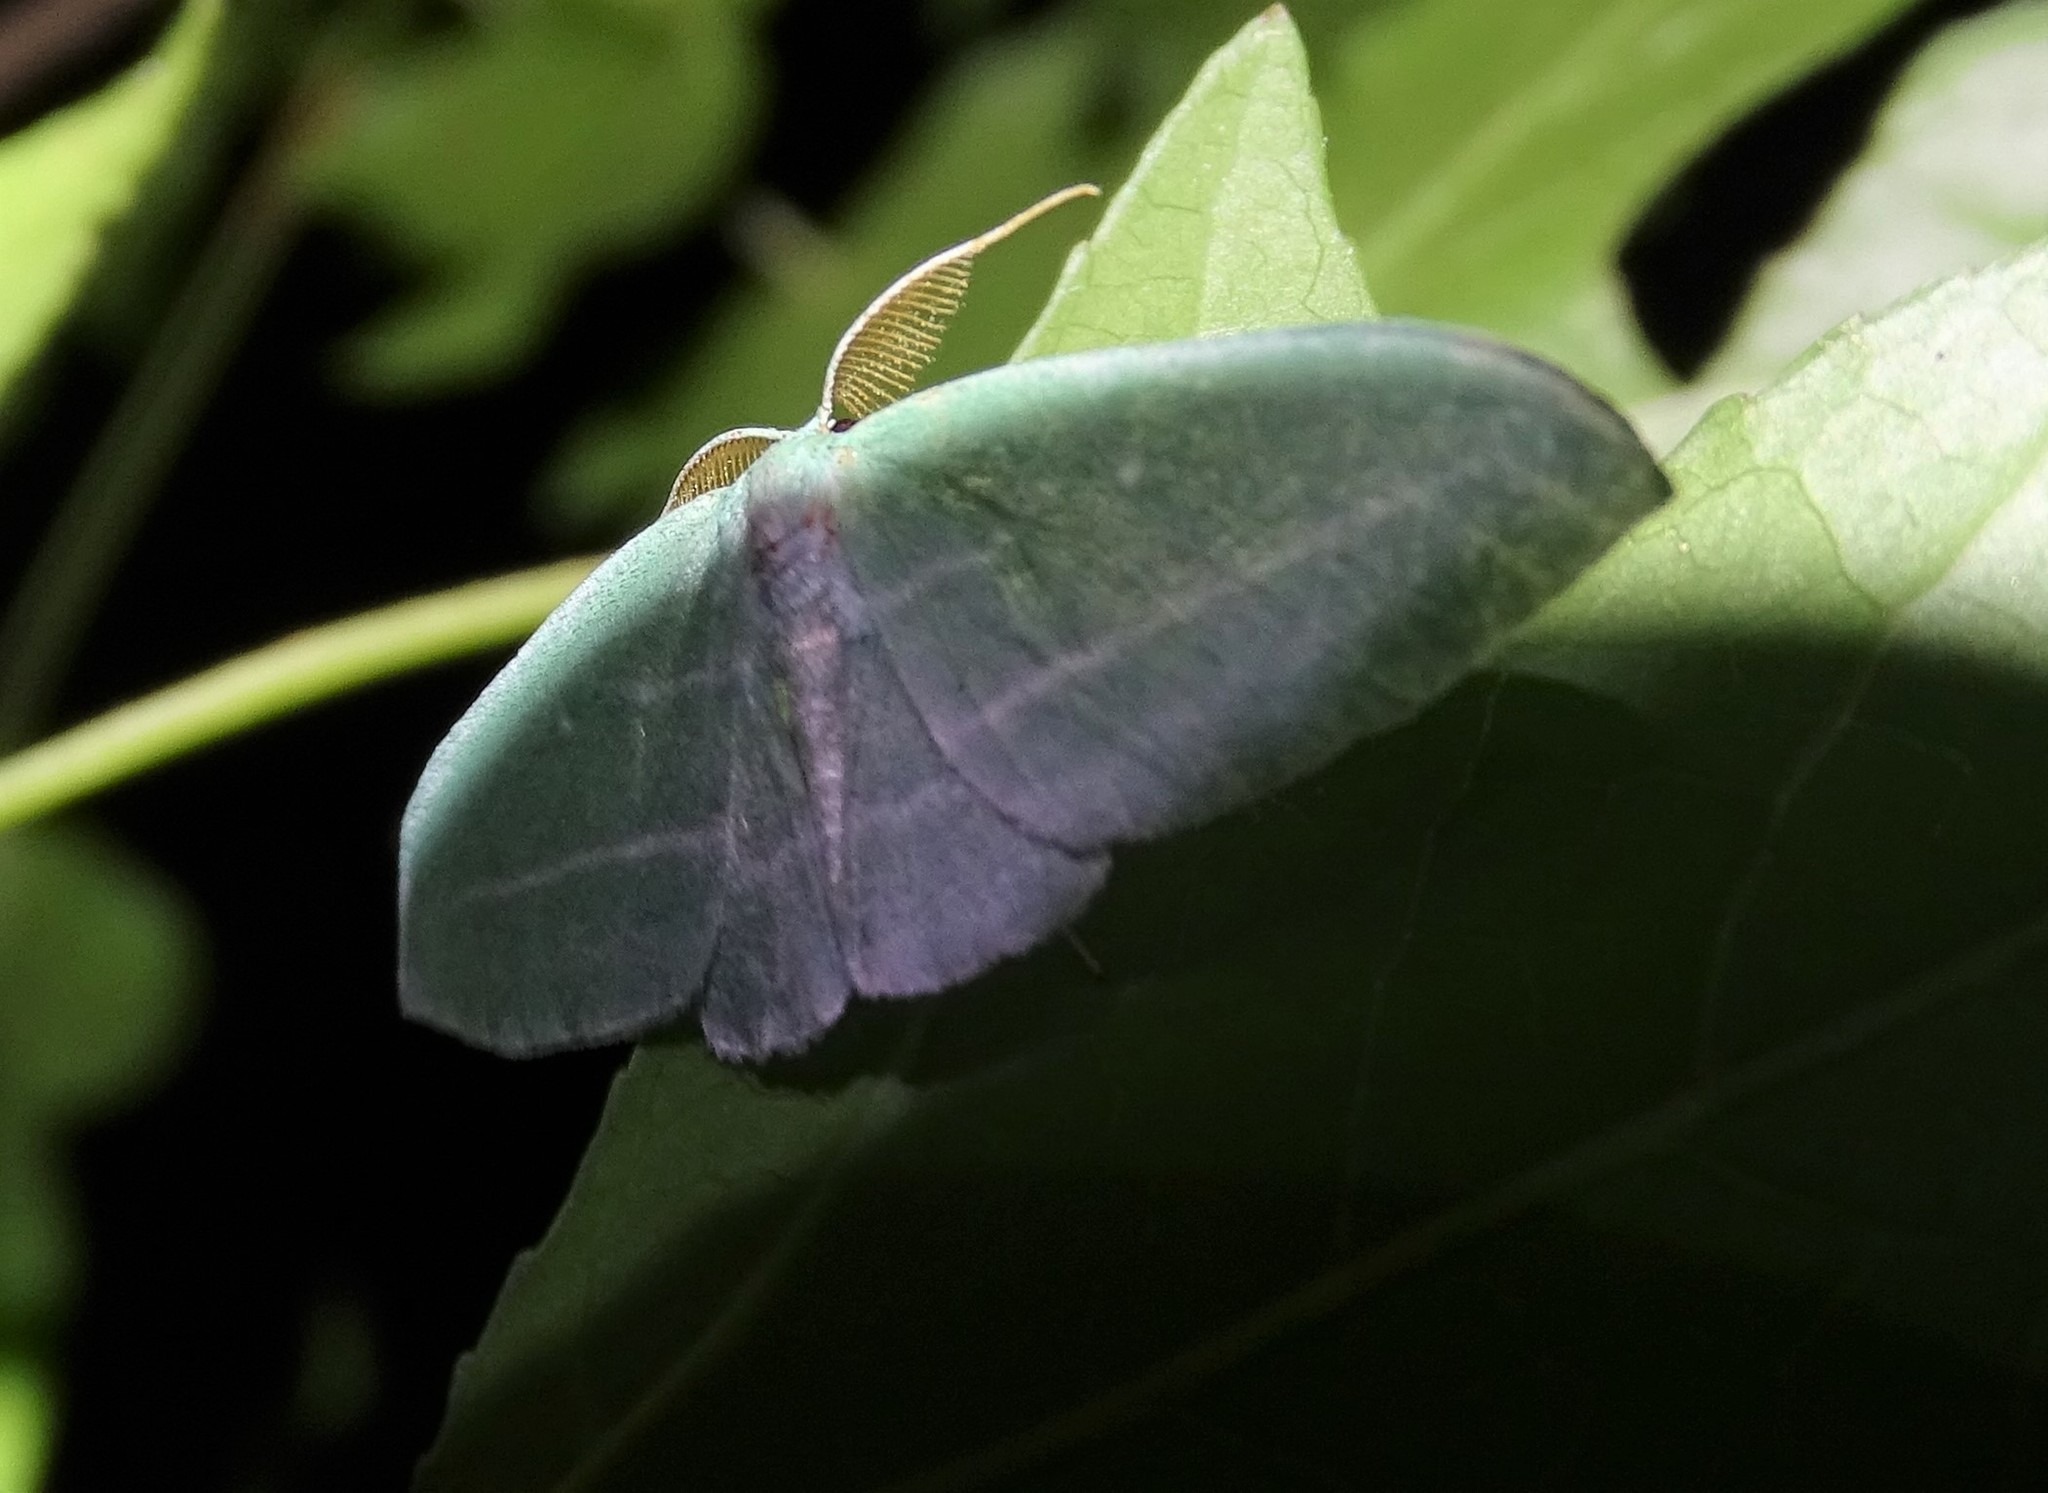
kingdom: Animalia
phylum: Arthropoda
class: Insecta
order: Lepidoptera
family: Geometridae
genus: Dyspteris
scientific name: Dyspteris abortivaria
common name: Bad-wing
